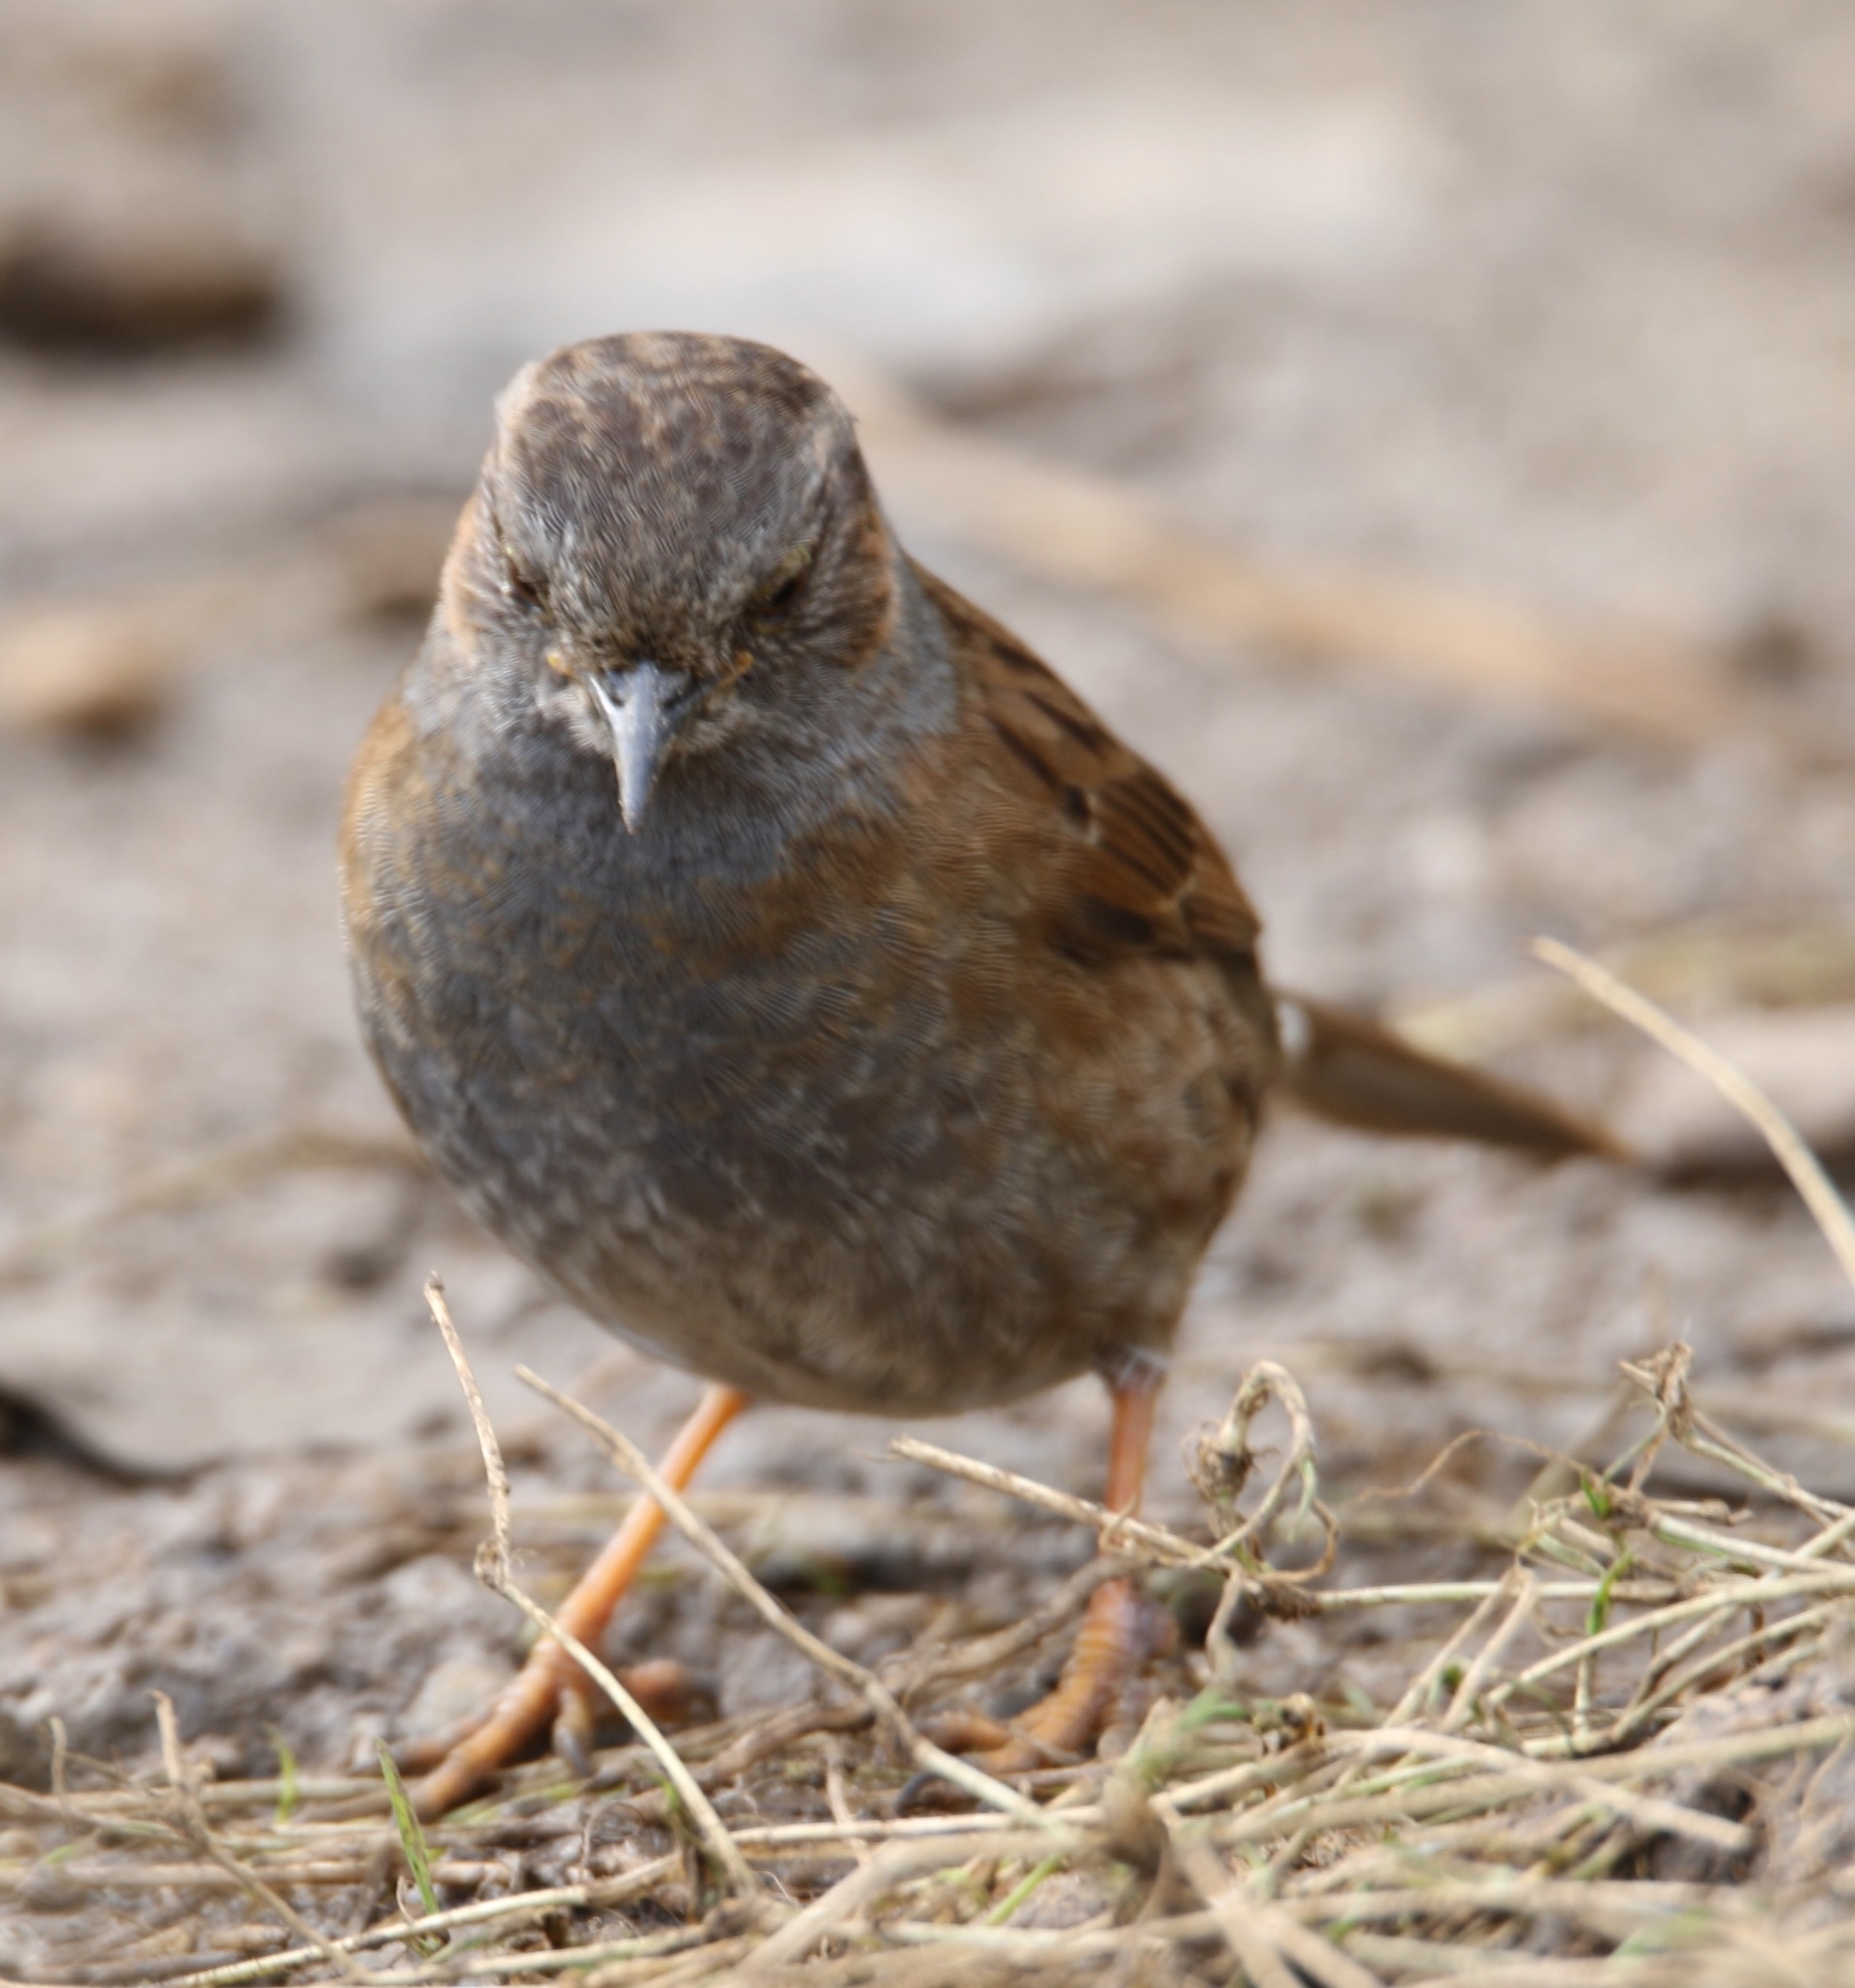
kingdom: Animalia
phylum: Chordata
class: Aves
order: Passeriformes
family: Prunellidae
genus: Prunella
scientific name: Prunella modularis
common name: Dunnock
